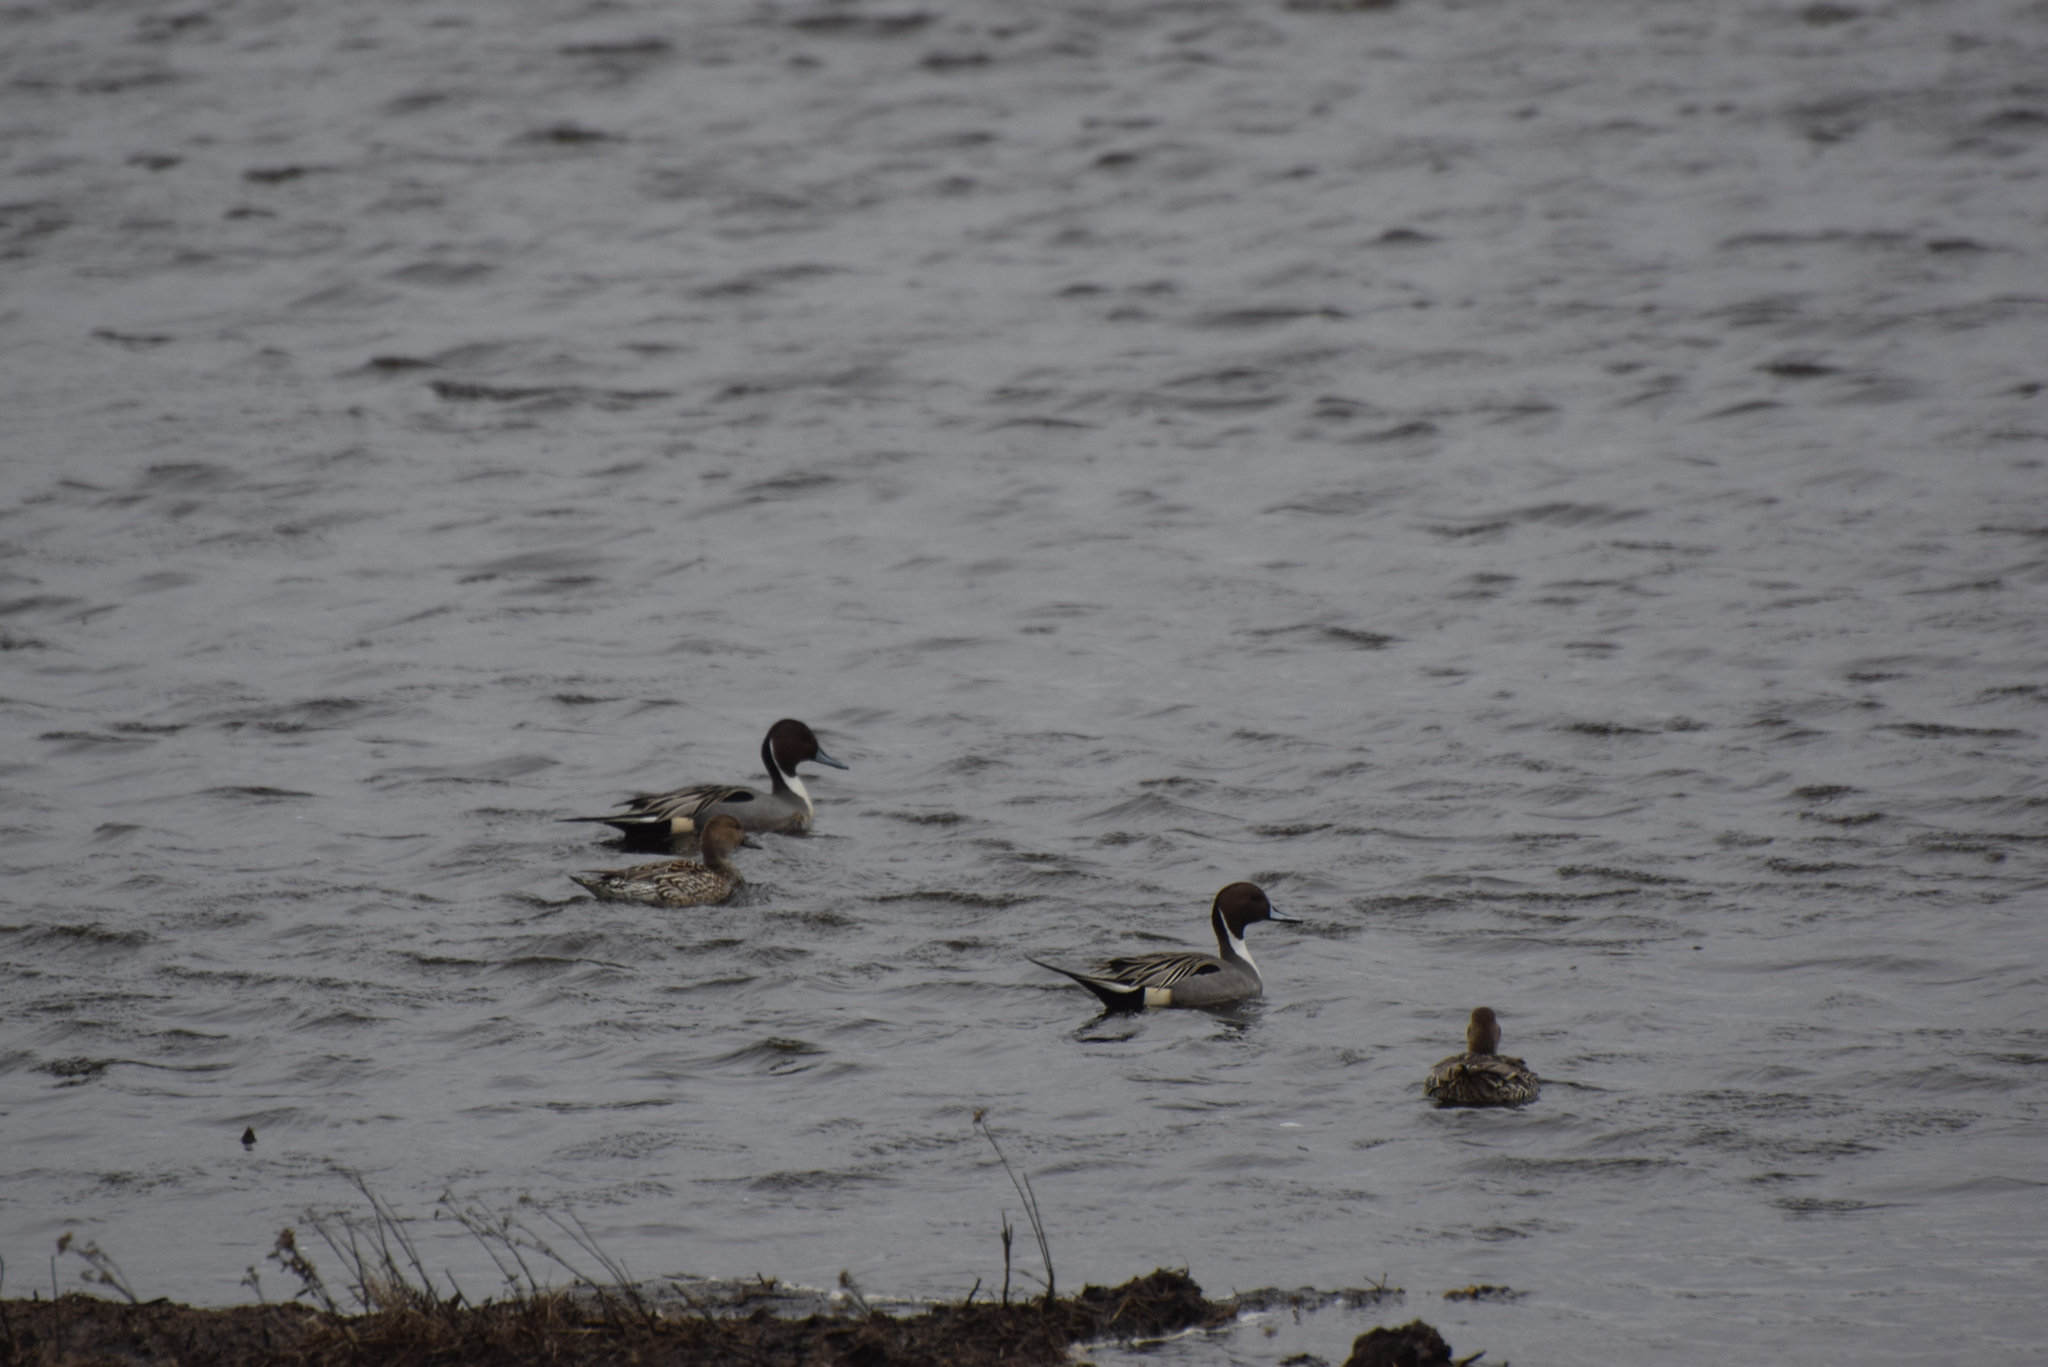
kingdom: Animalia
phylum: Chordata
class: Aves
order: Anseriformes
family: Anatidae
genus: Anas
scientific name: Anas acuta
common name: Northern pintail
